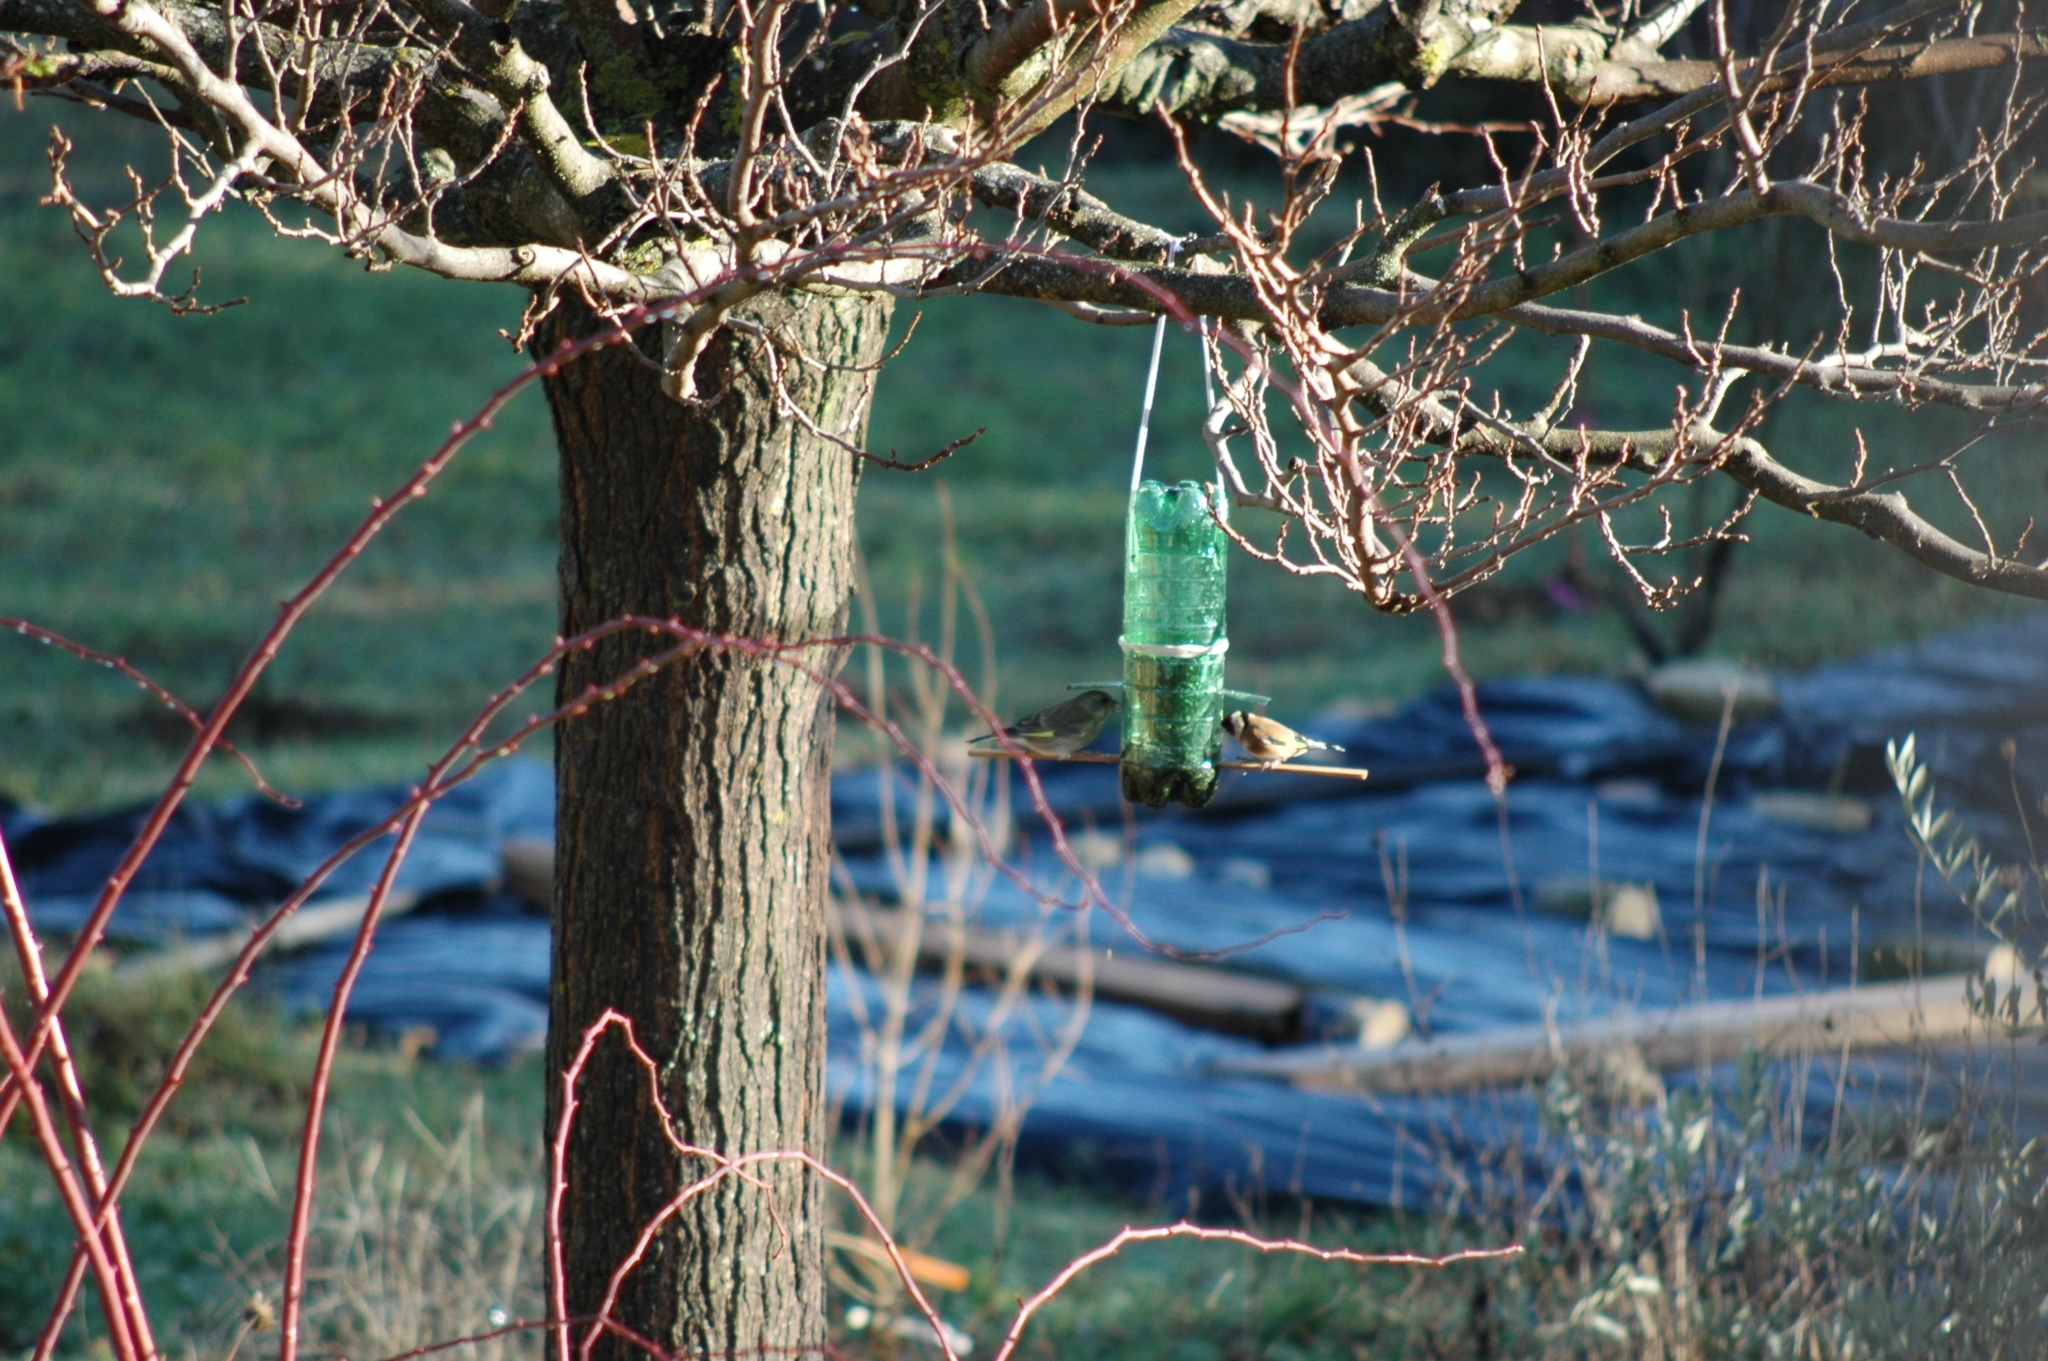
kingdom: Animalia
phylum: Chordata
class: Aves
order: Passeriformes
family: Fringillidae
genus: Carduelis
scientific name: Carduelis carduelis
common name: European goldfinch
